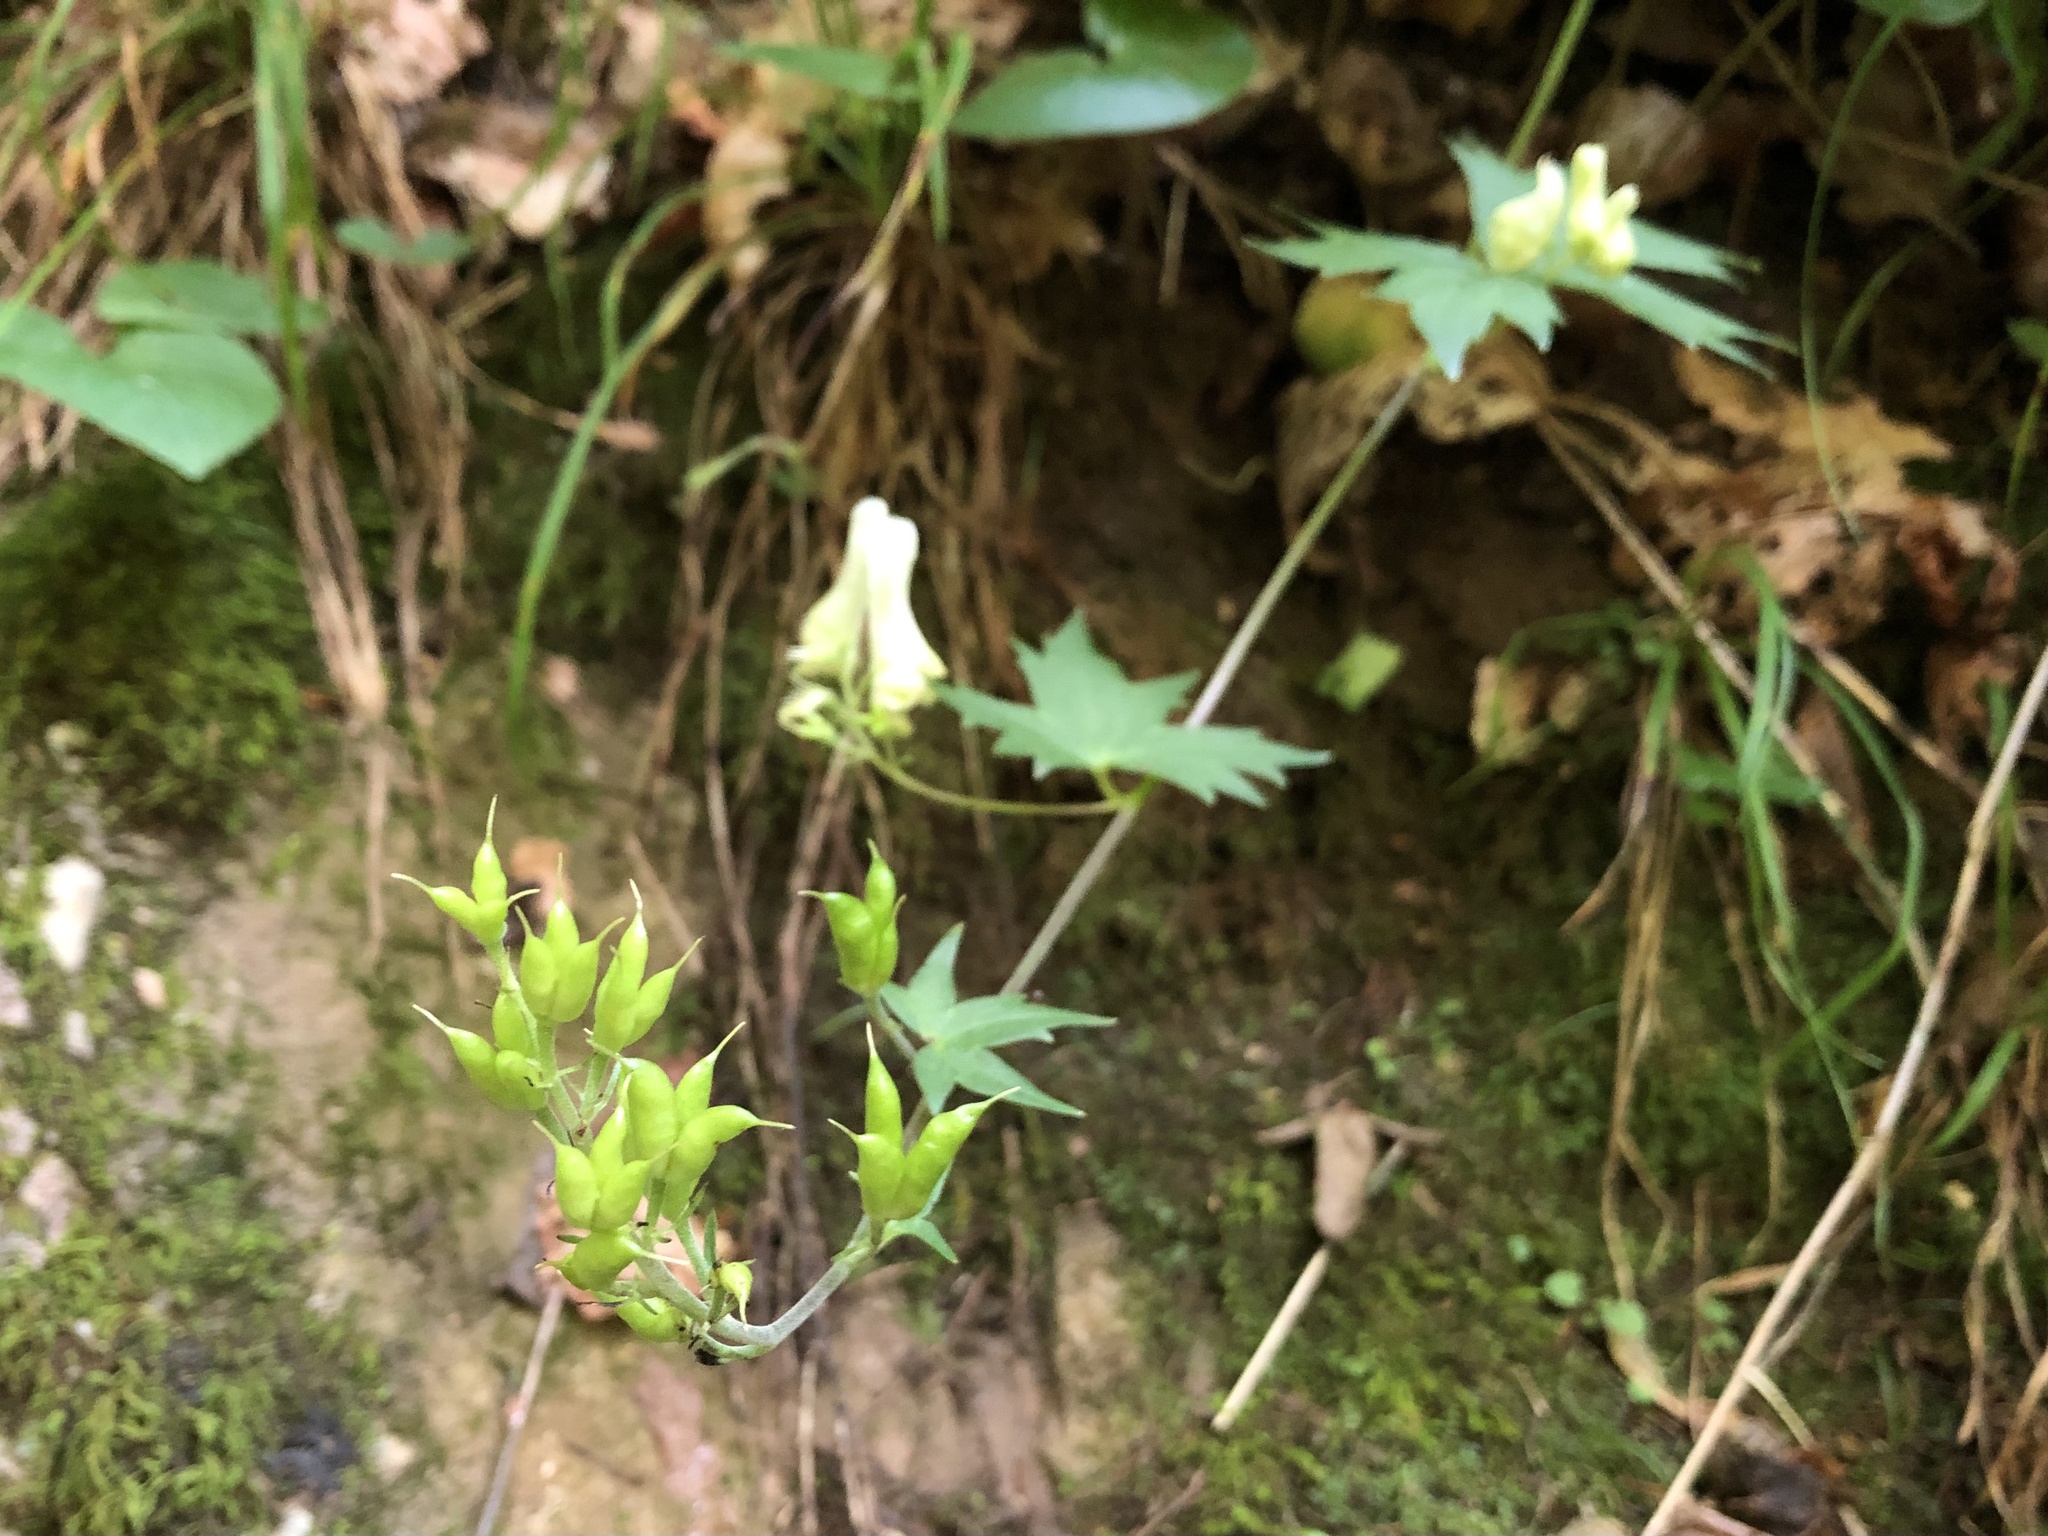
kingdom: Plantae
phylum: Tracheophyta
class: Magnoliopsida
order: Ranunculales
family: Ranunculaceae
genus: Aconitum
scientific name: Aconitum lycoctonum
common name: Wolf's-bane
